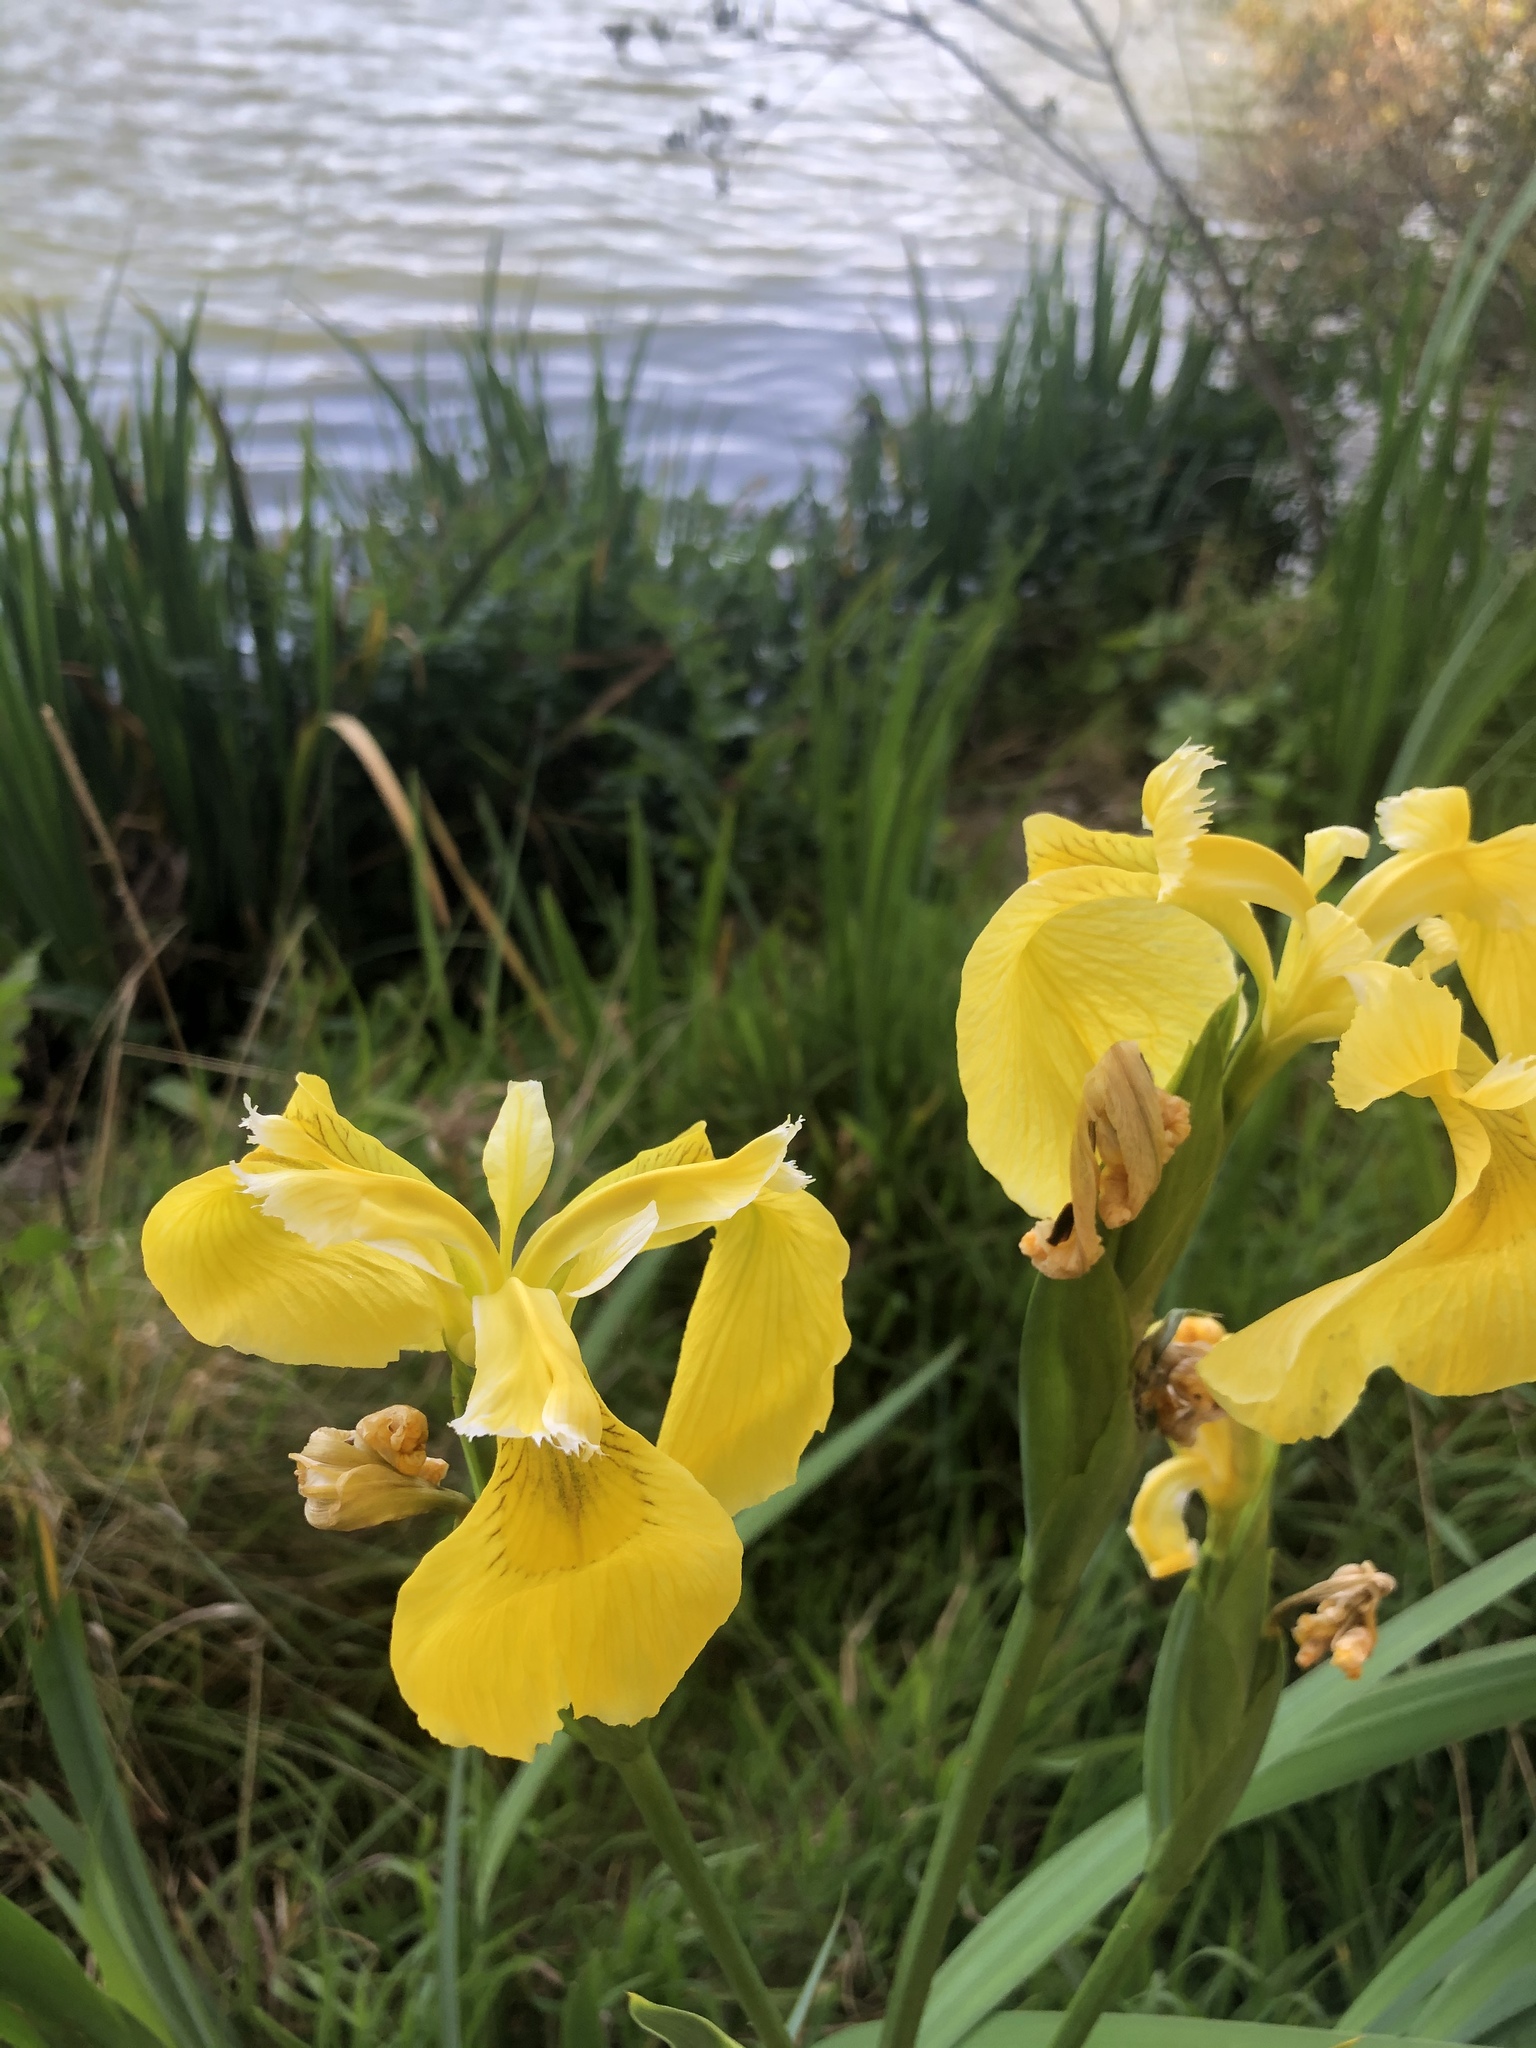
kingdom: Plantae
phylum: Tracheophyta
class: Liliopsida
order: Asparagales
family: Iridaceae
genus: Iris
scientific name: Iris pseudacorus
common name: Yellow flag
